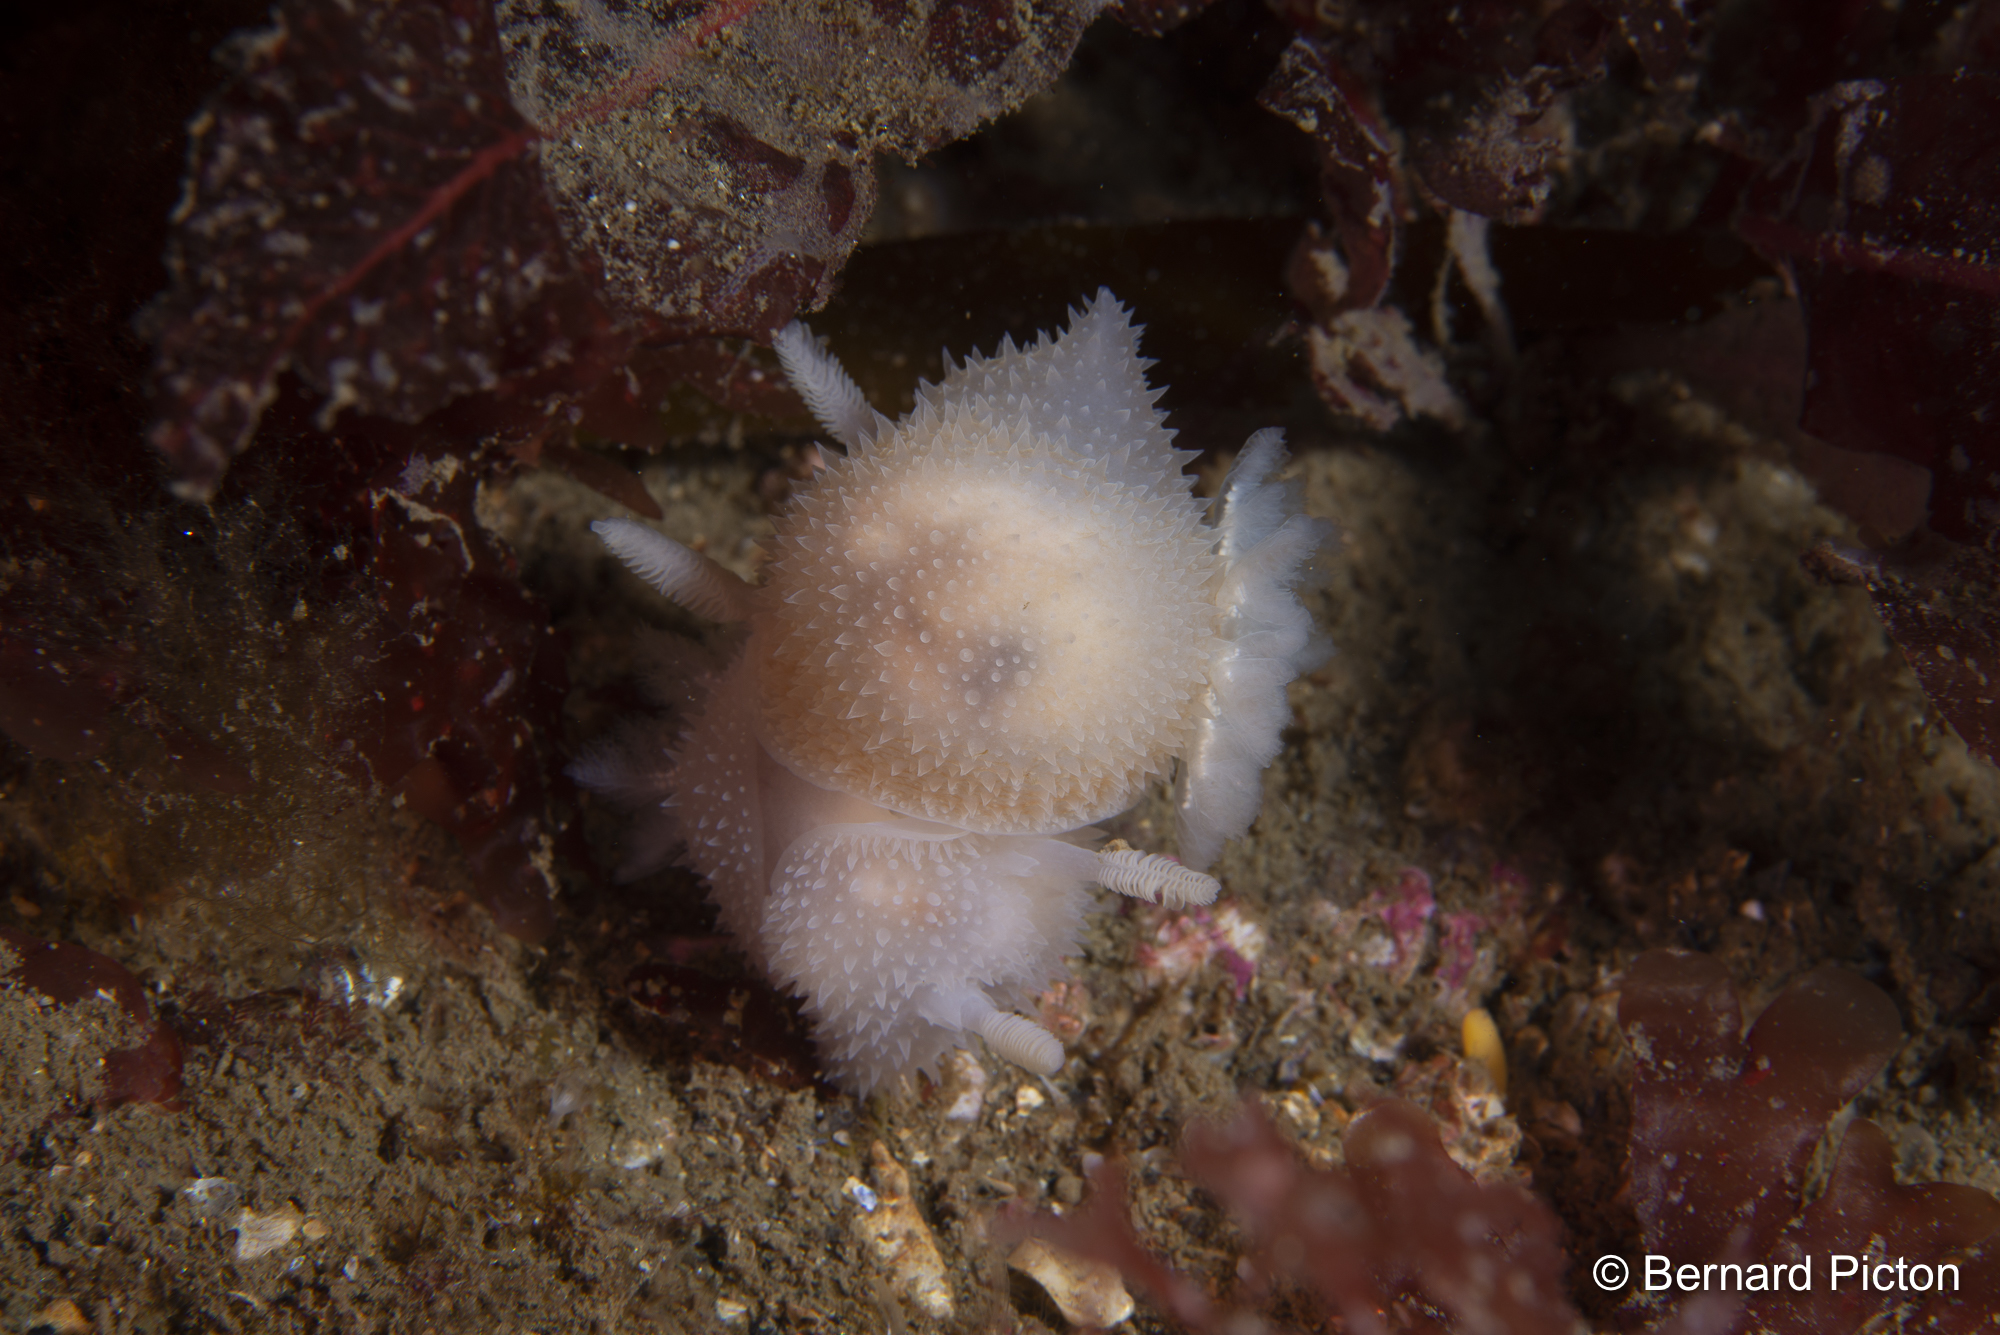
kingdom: Animalia
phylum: Mollusca
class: Gastropoda
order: Nudibranchia
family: Onchidorididae
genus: Acanthodoris
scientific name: Acanthodoris pilosa
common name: Hairy spiny doris
